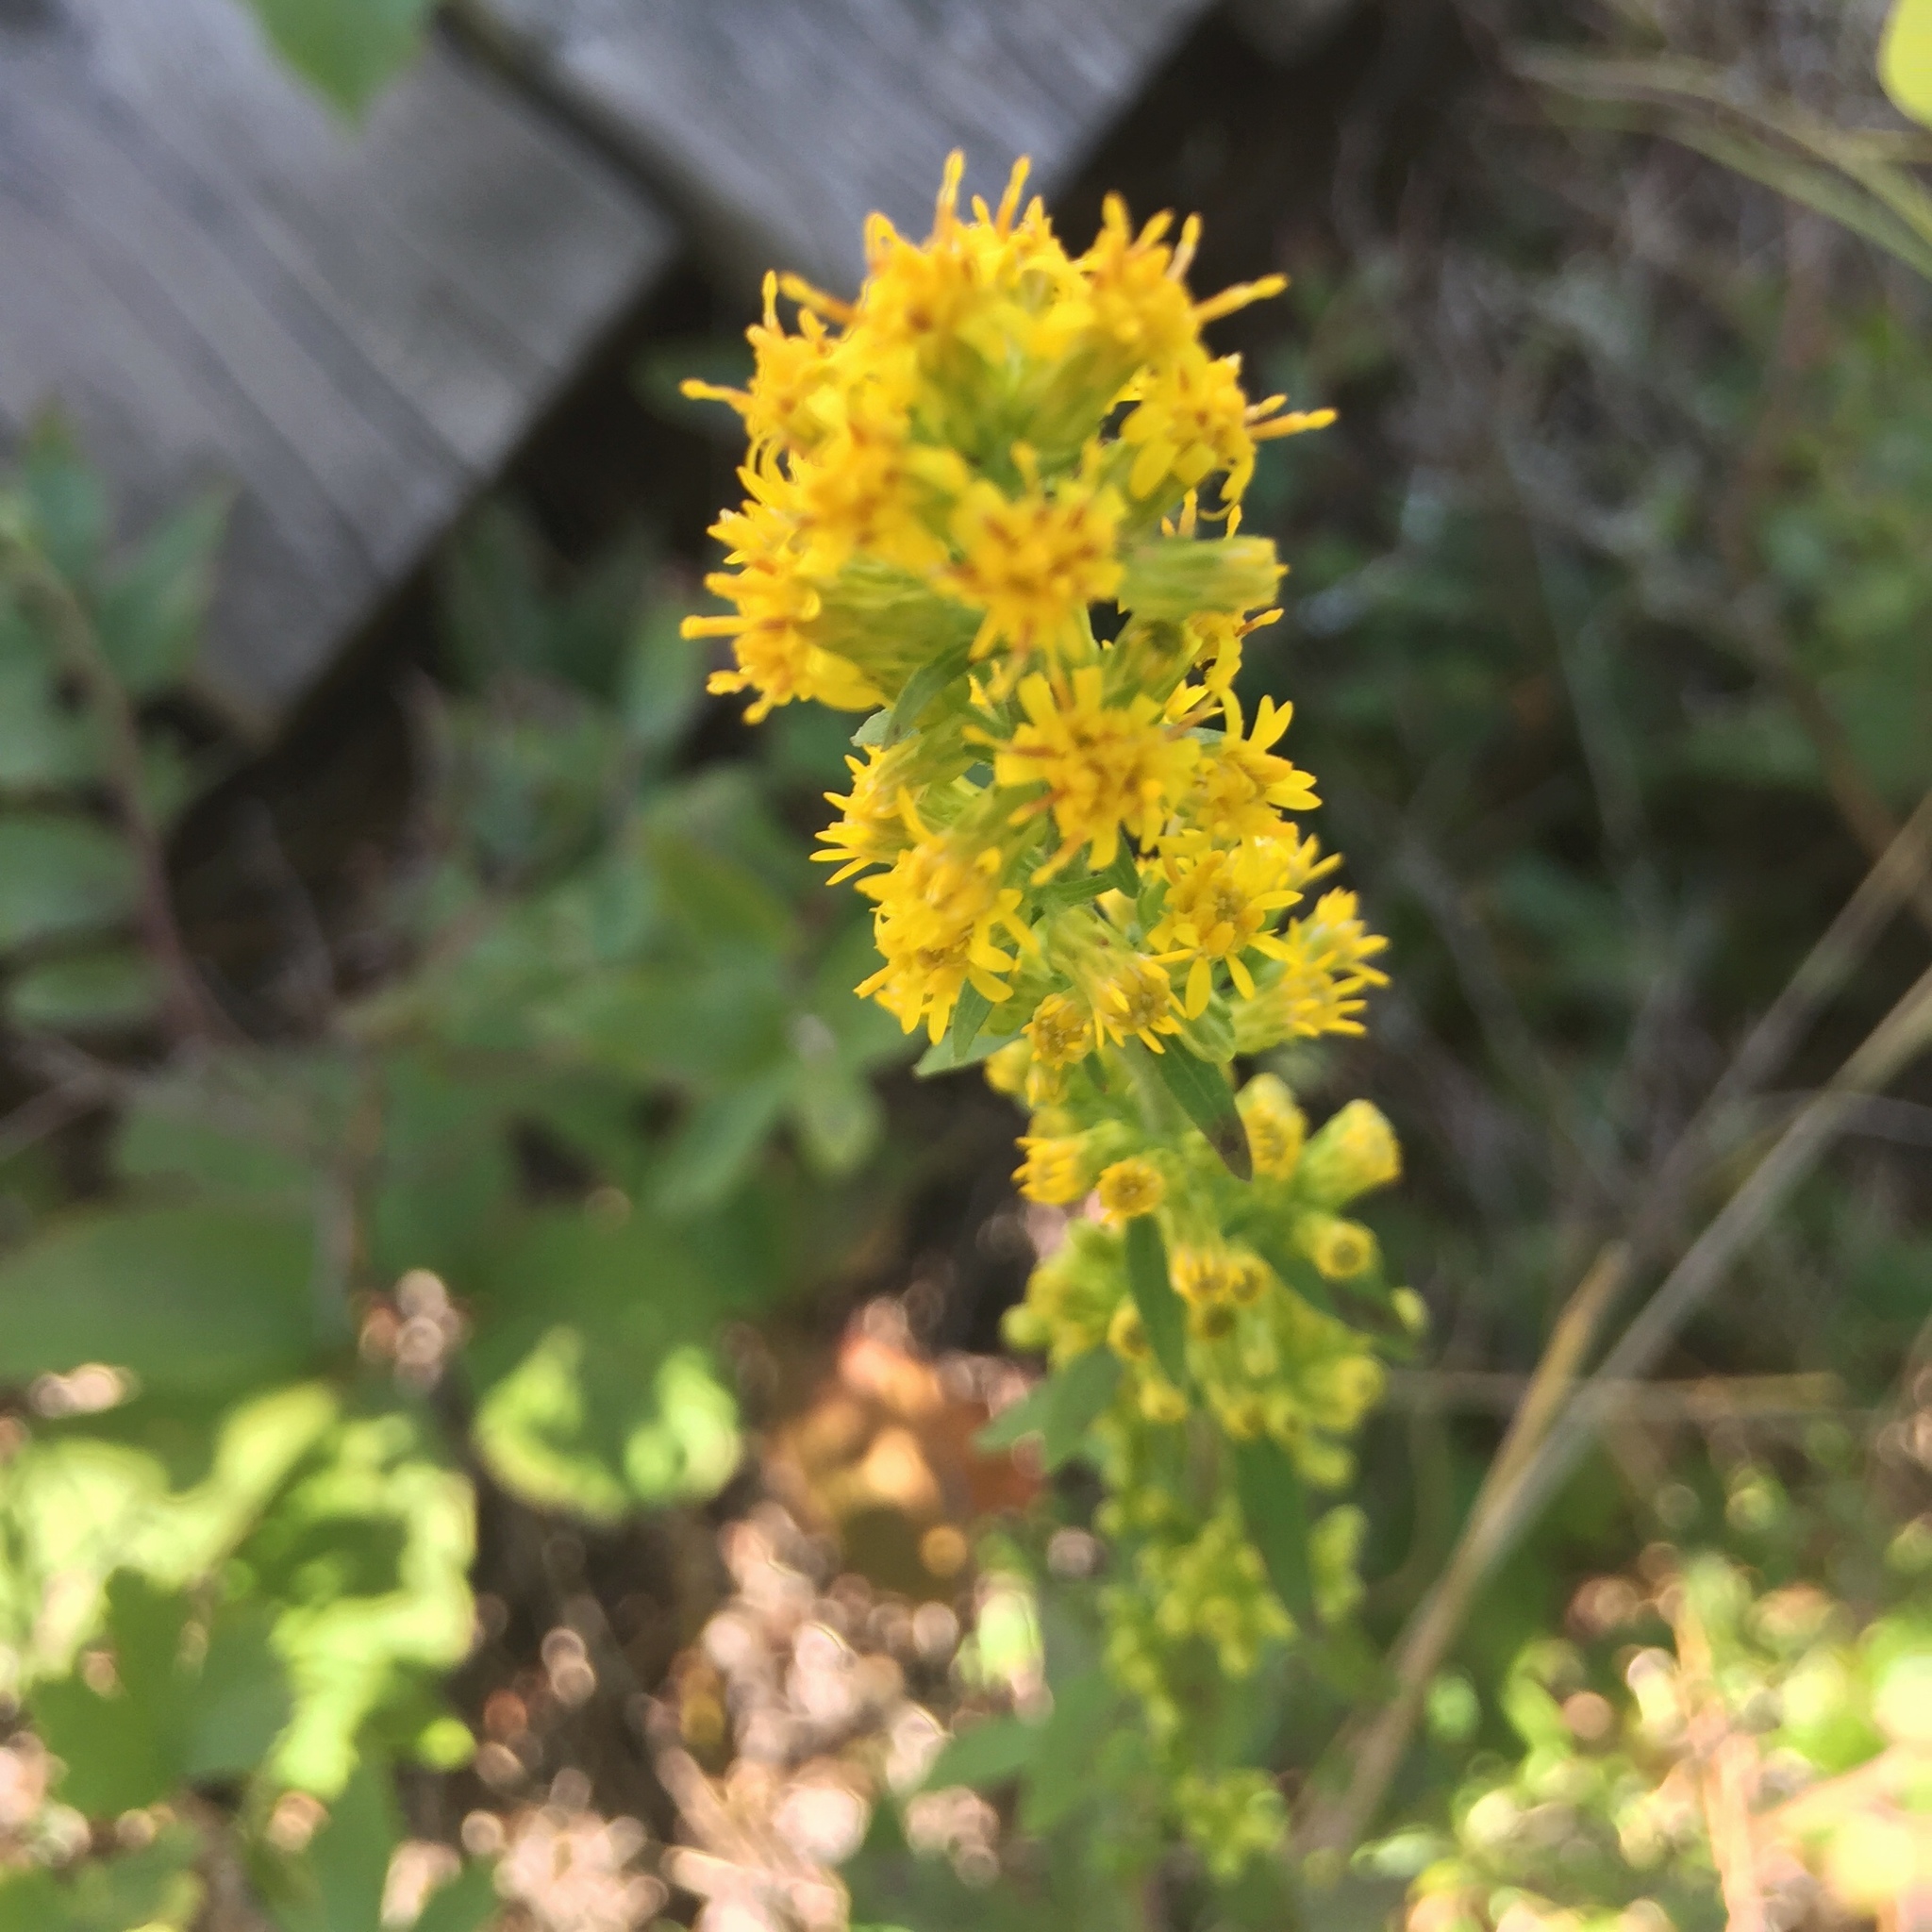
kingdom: Plantae
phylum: Tracheophyta
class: Magnoliopsida
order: Asterales
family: Asteraceae
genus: Solidago
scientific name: Solidago hispida
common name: Hairy goldenrod
